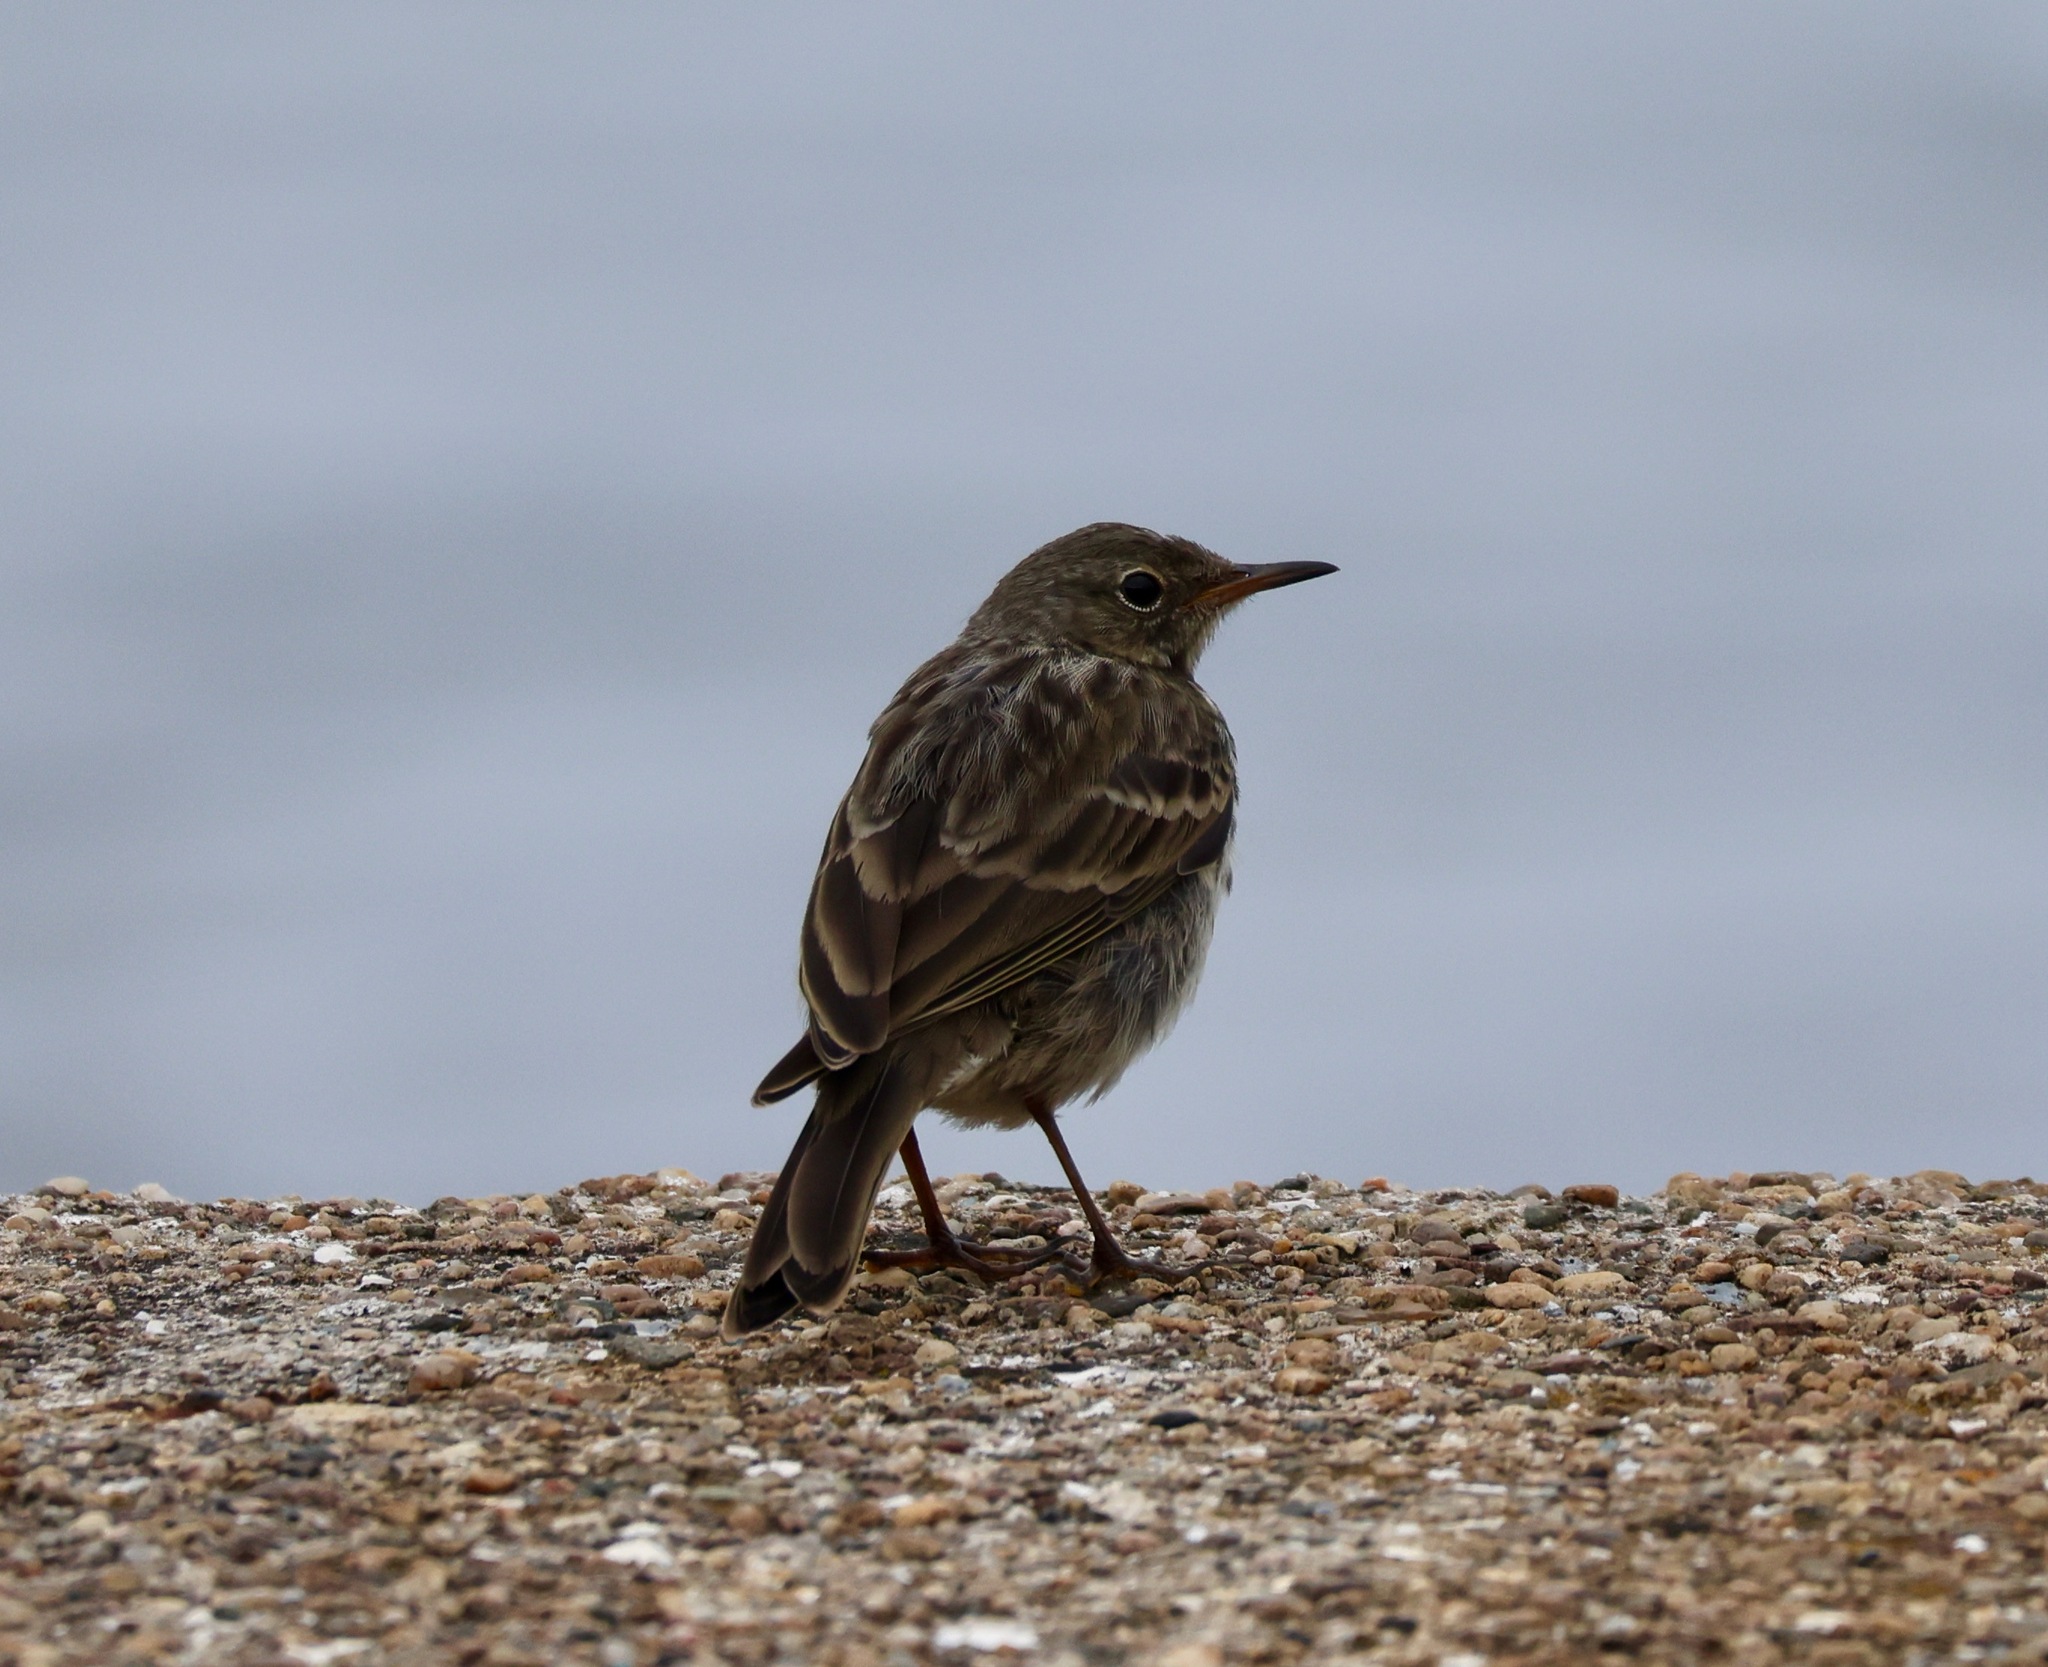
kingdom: Animalia
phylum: Chordata
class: Aves
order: Passeriformes
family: Motacillidae
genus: Anthus
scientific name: Anthus petrosus
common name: Eurasian rock pipit
